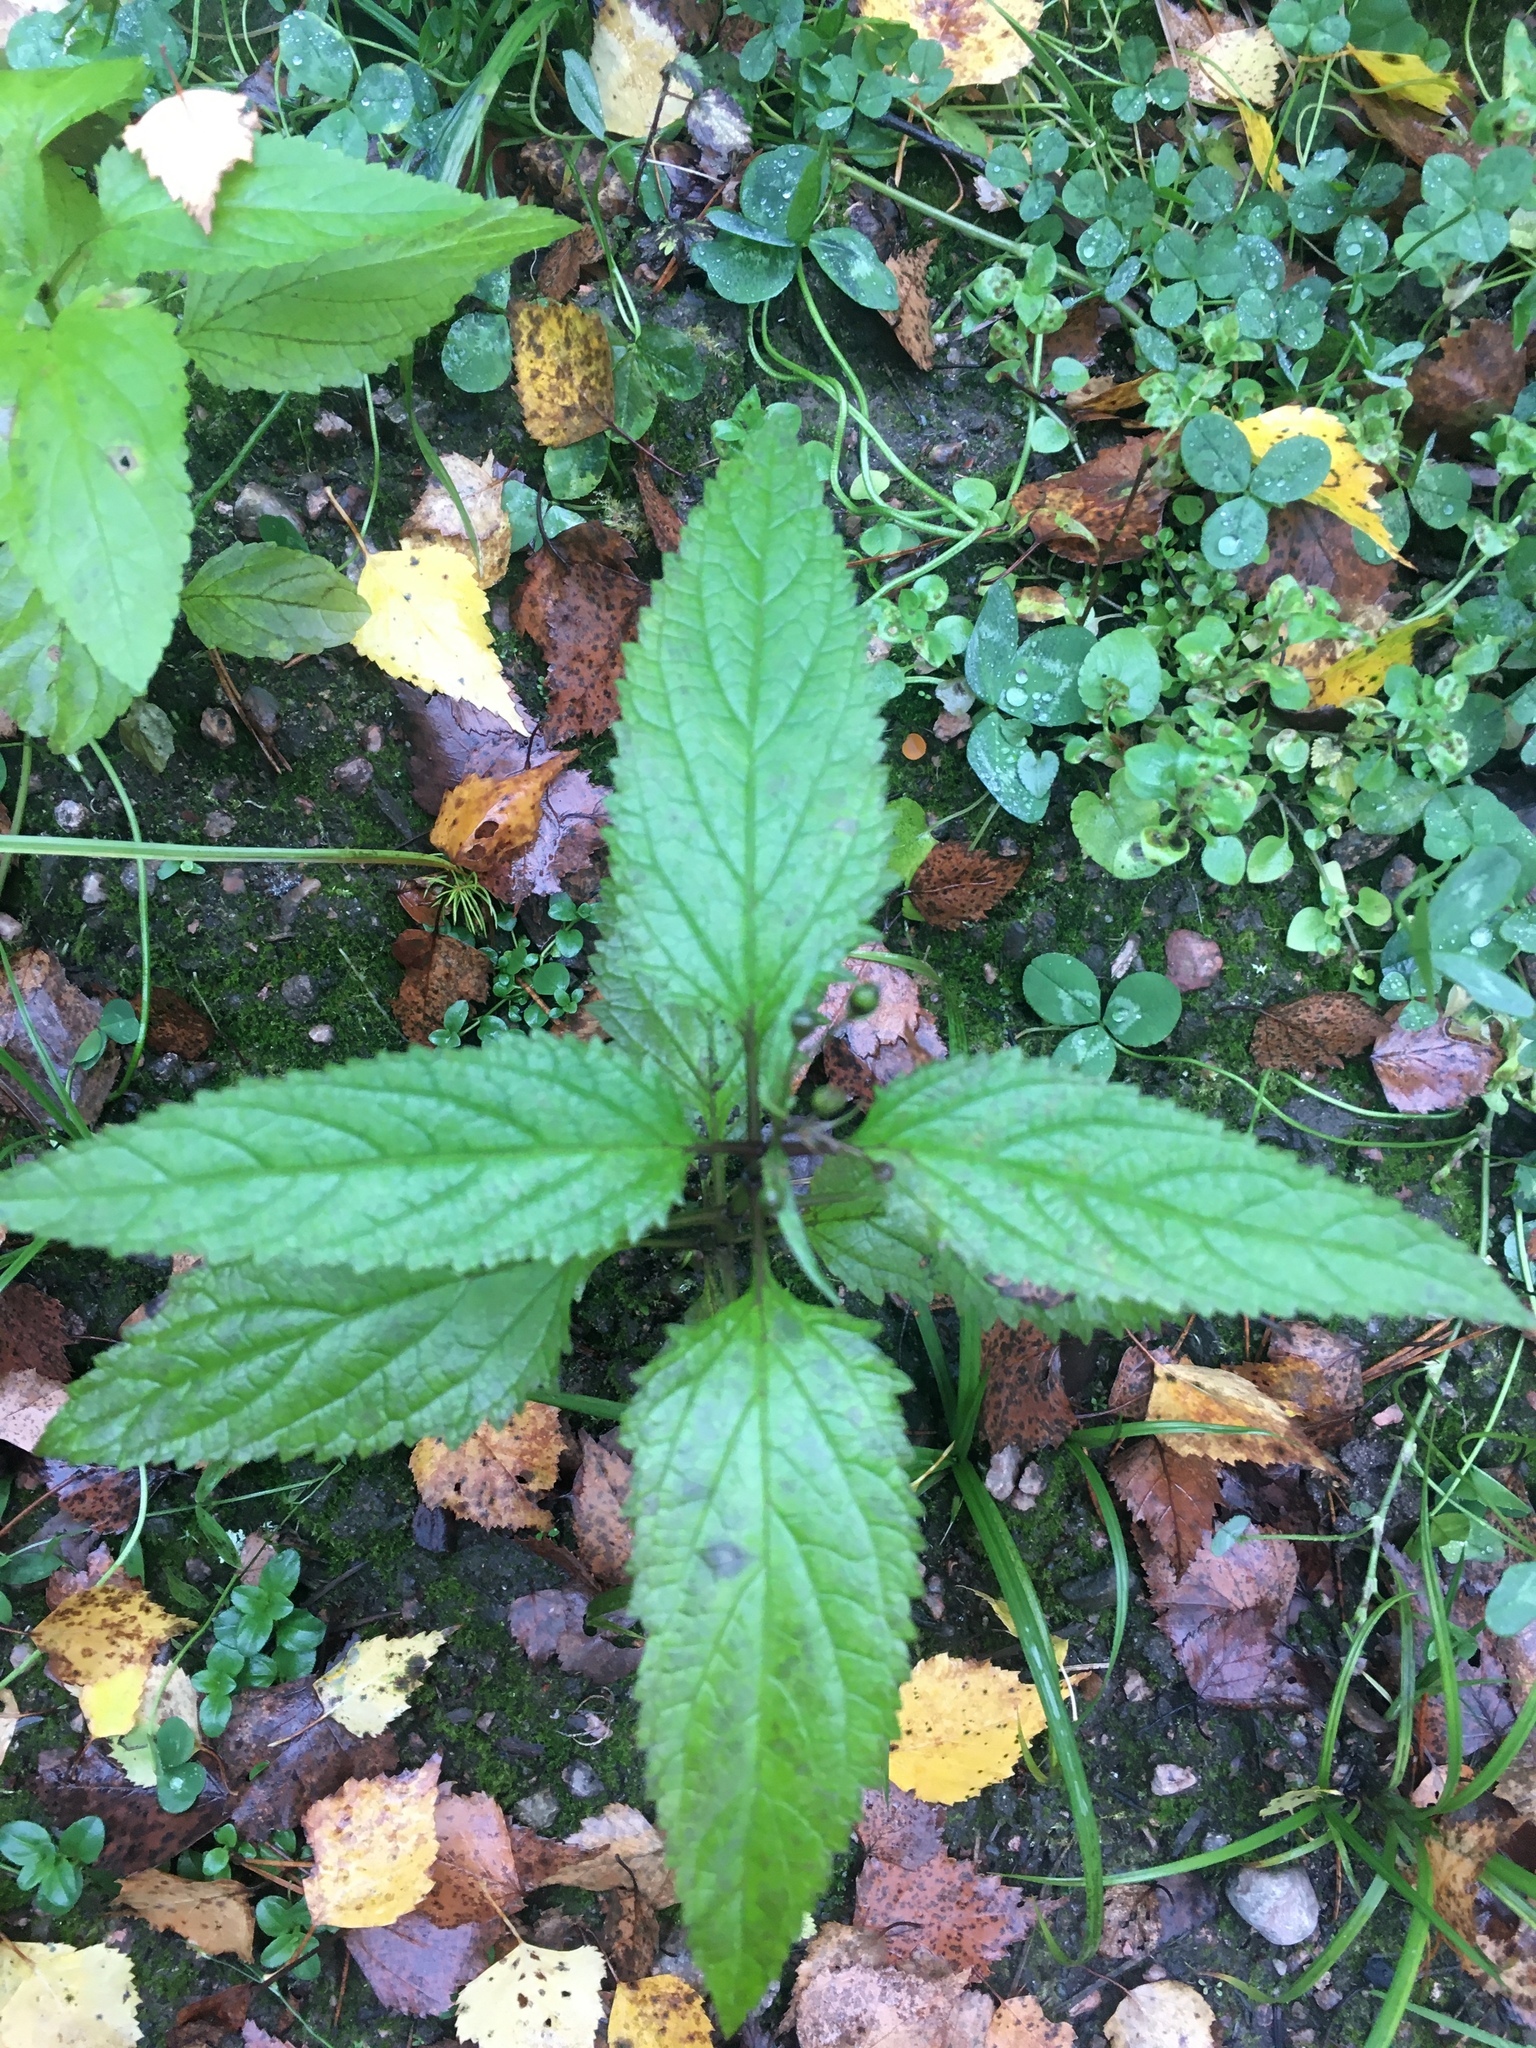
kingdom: Plantae
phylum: Tracheophyta
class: Magnoliopsida
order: Lamiales
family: Scrophulariaceae
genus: Scrophularia
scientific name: Scrophularia nodosa
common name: Common figwort
